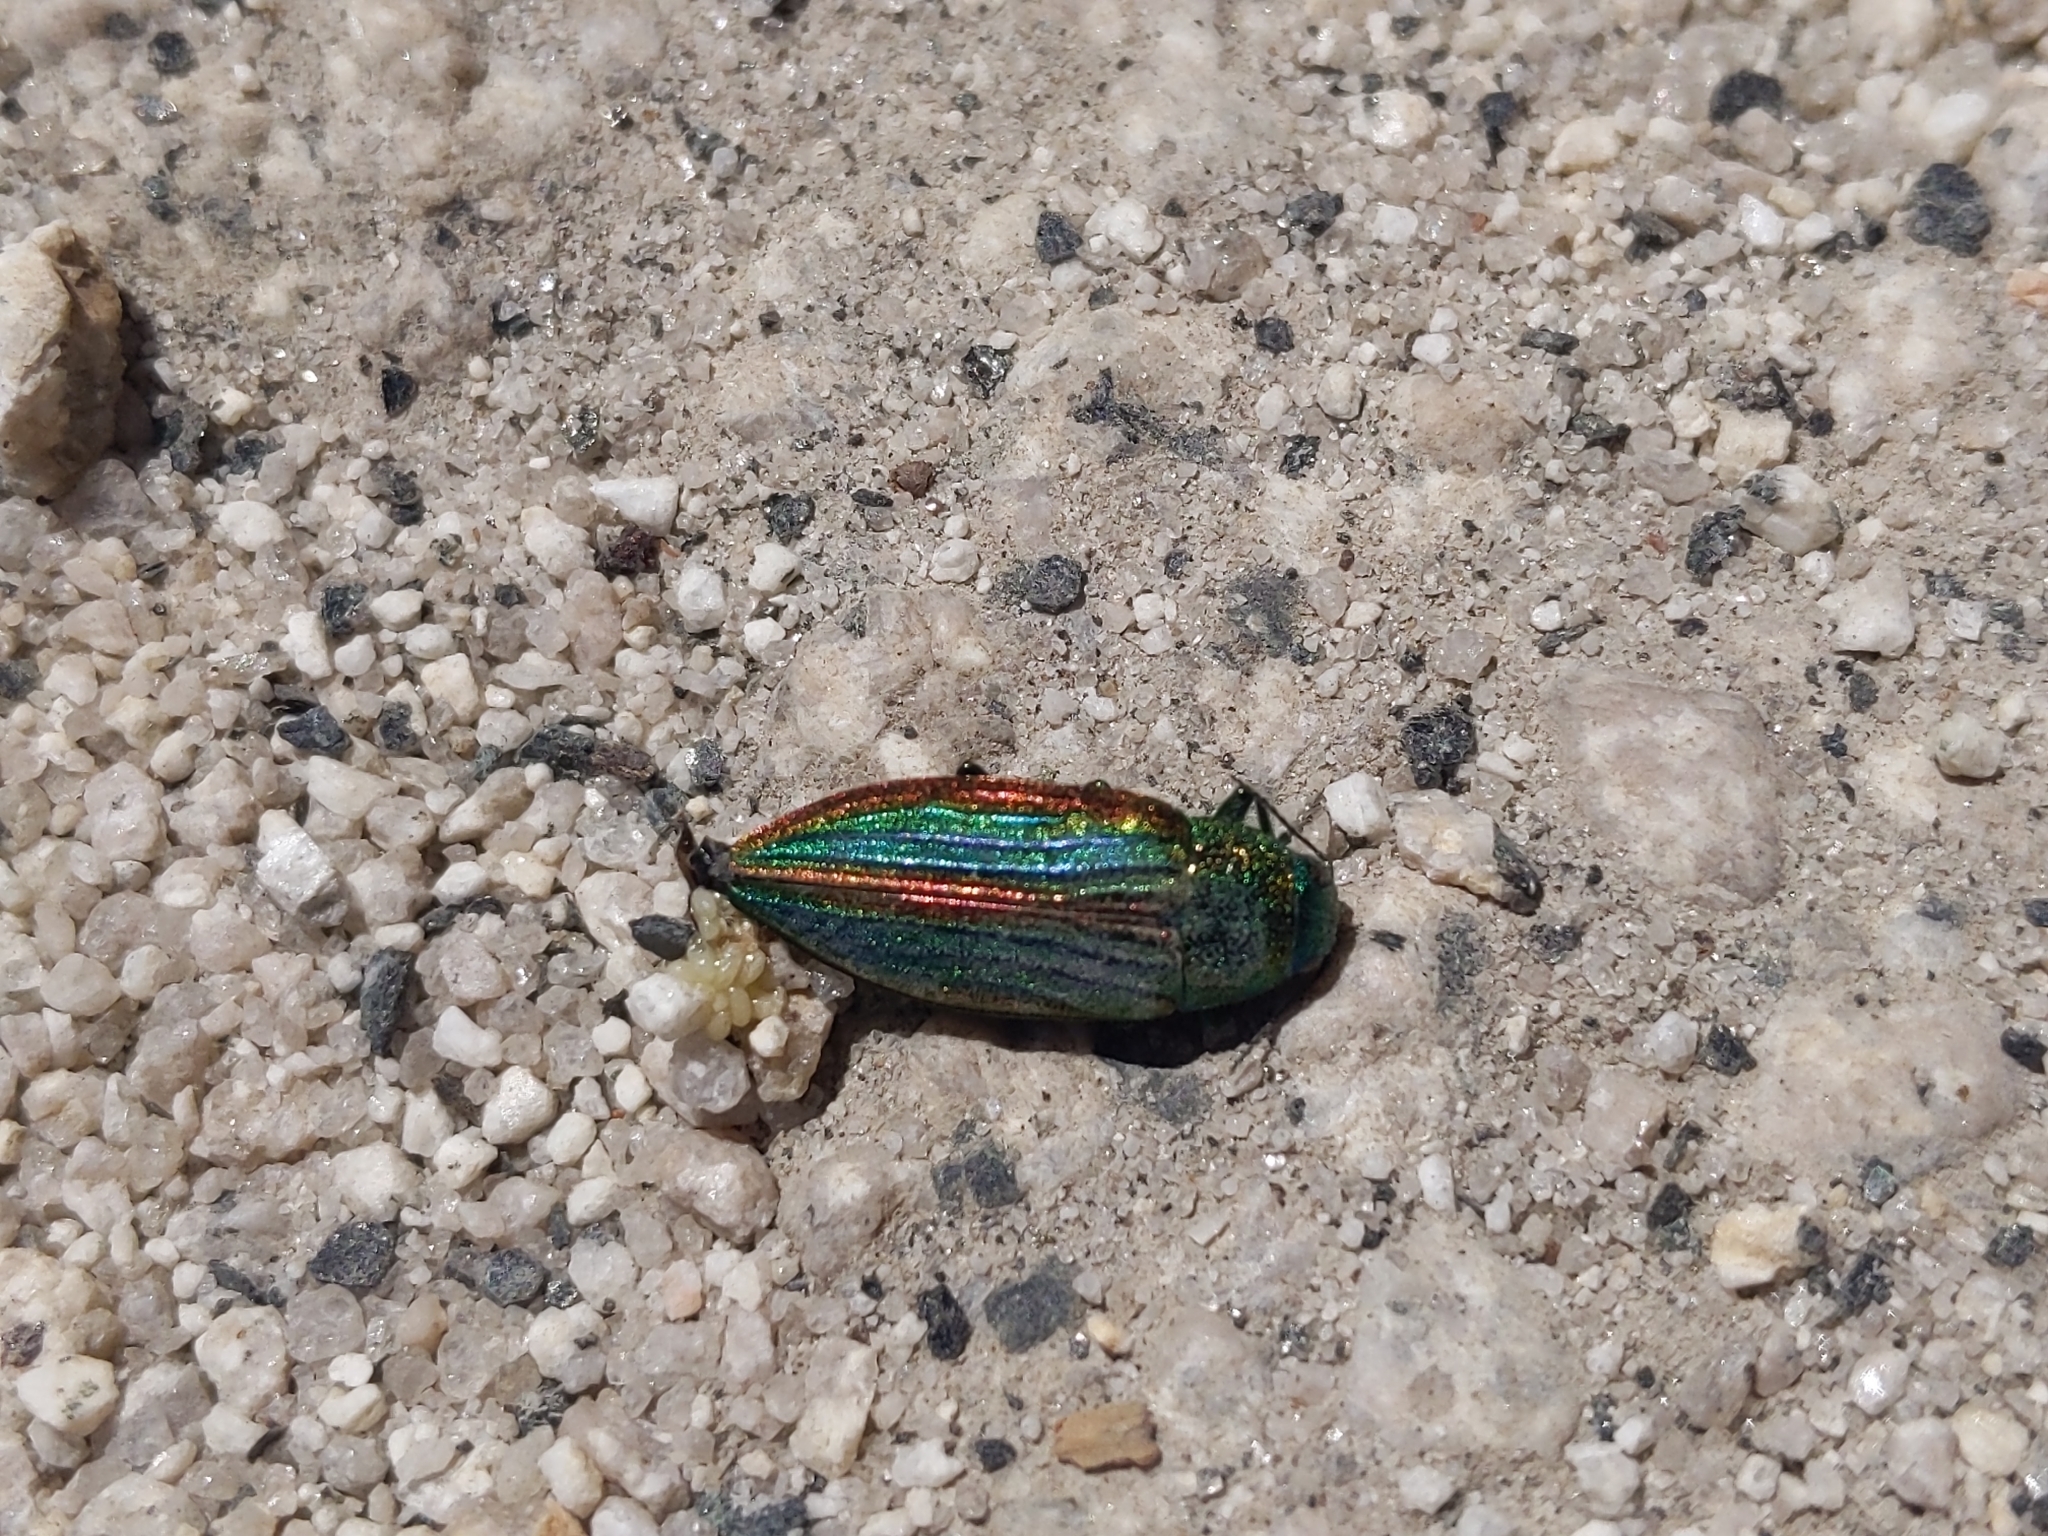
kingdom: Animalia
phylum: Arthropoda
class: Insecta
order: Coleoptera
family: Buprestidae
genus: Buprestis
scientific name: Buprestis aurulenta
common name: Golden buprestid
